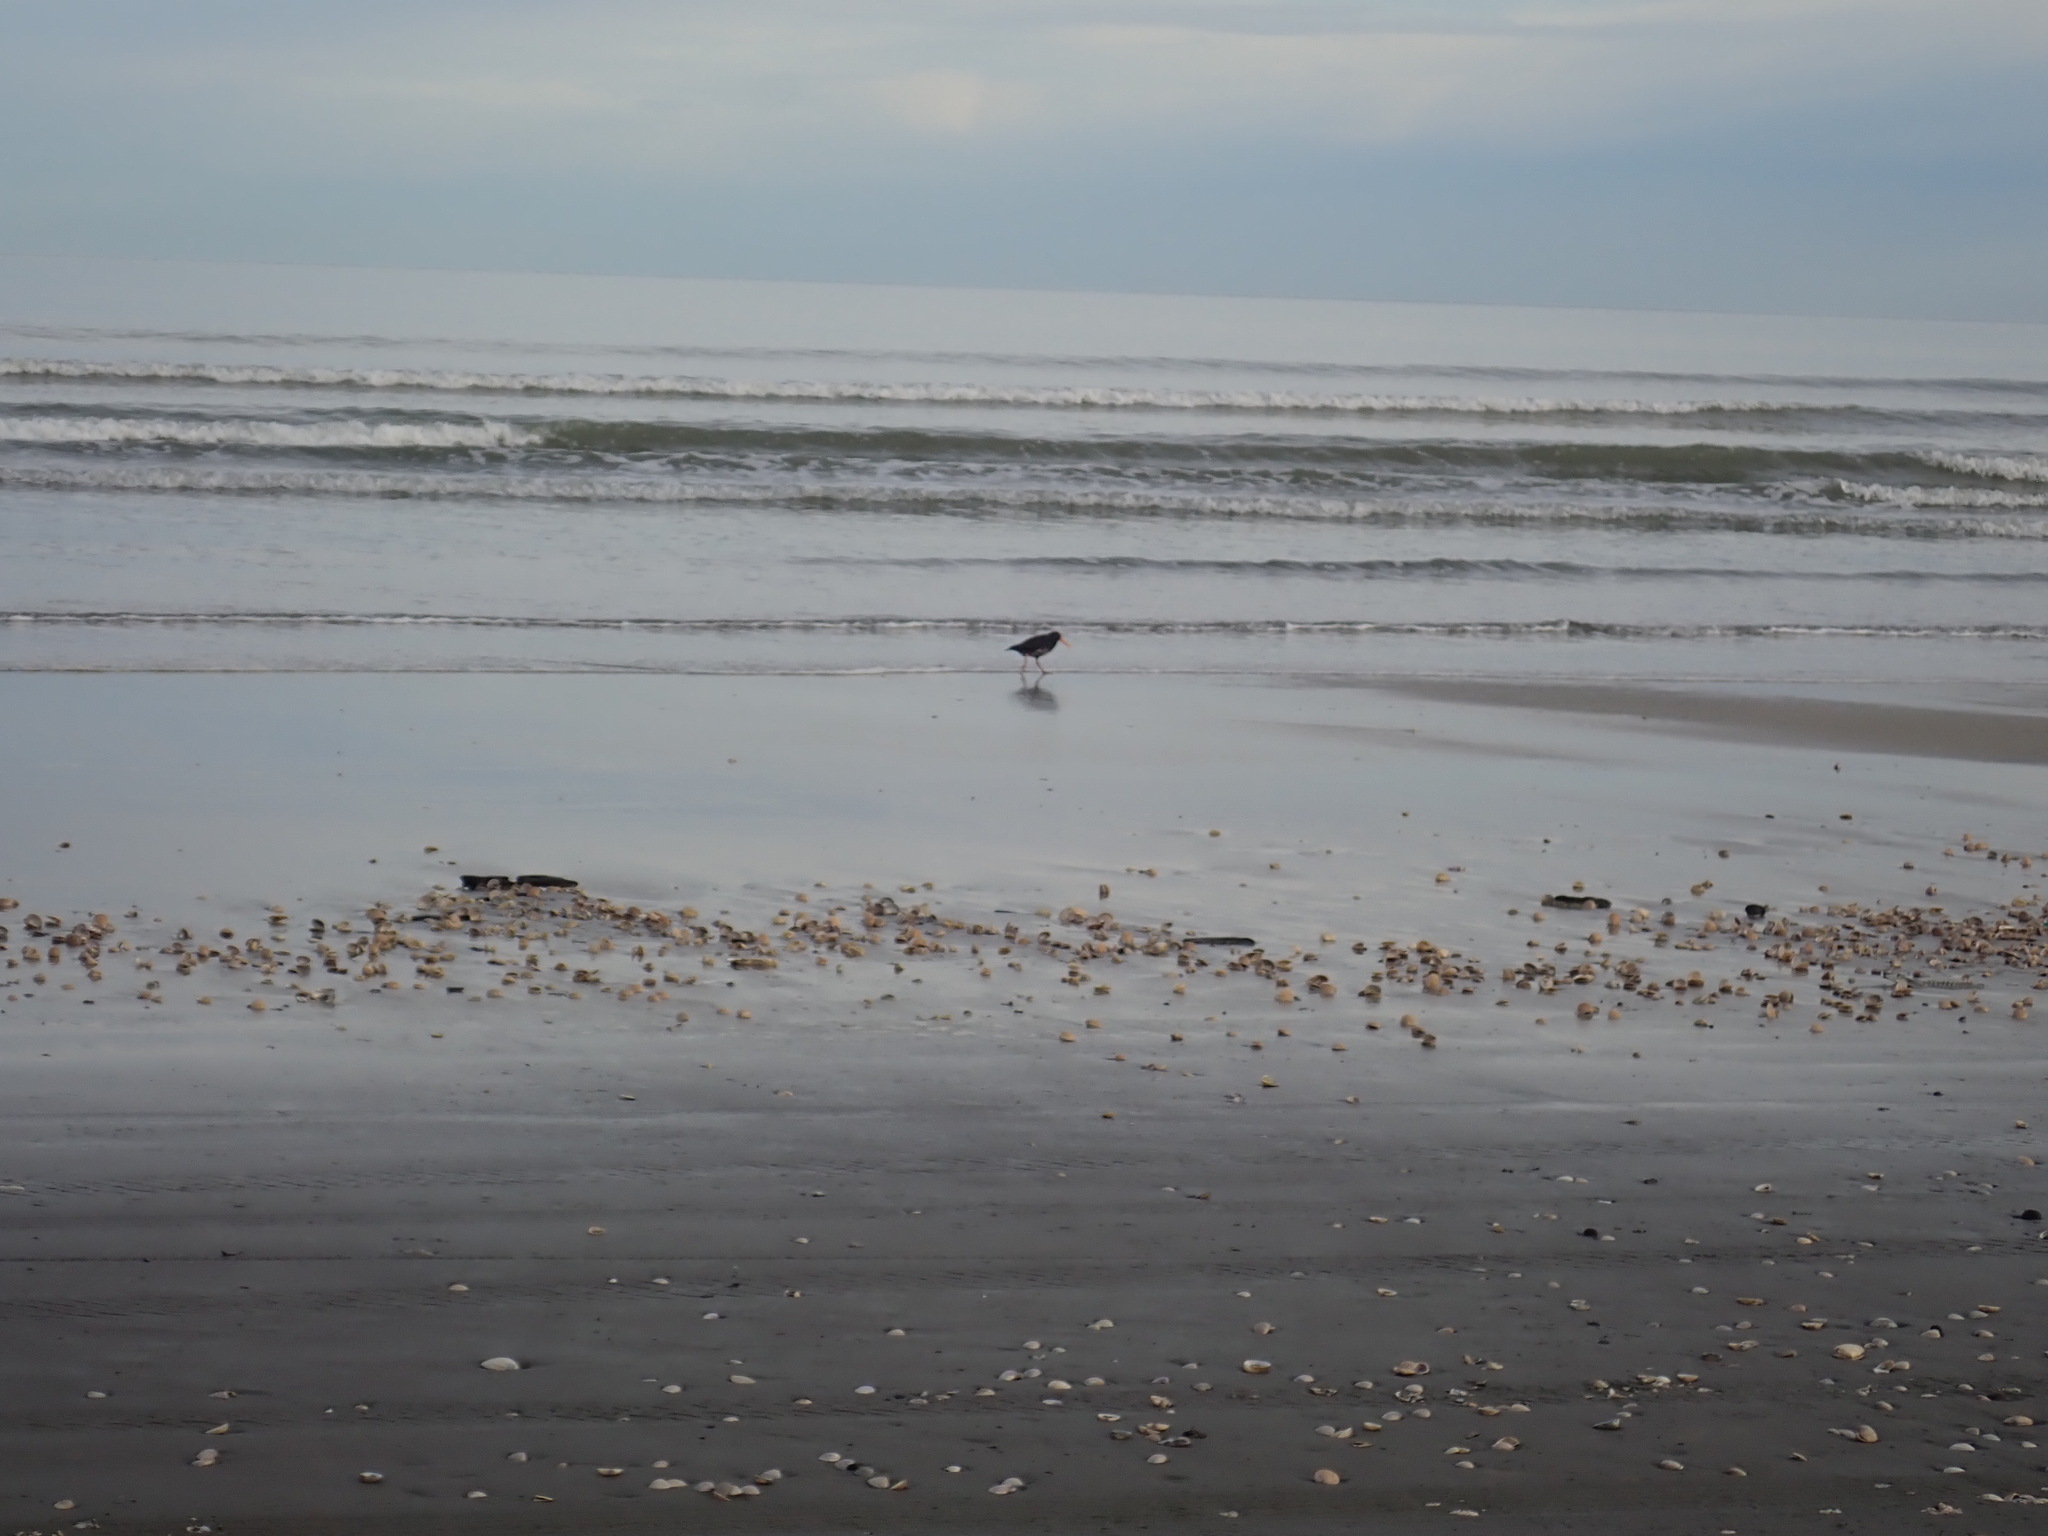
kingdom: Animalia
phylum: Chordata
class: Aves
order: Charadriiformes
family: Haematopodidae
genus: Haematopus
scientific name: Haematopus unicolor
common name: Variable oystercatcher
